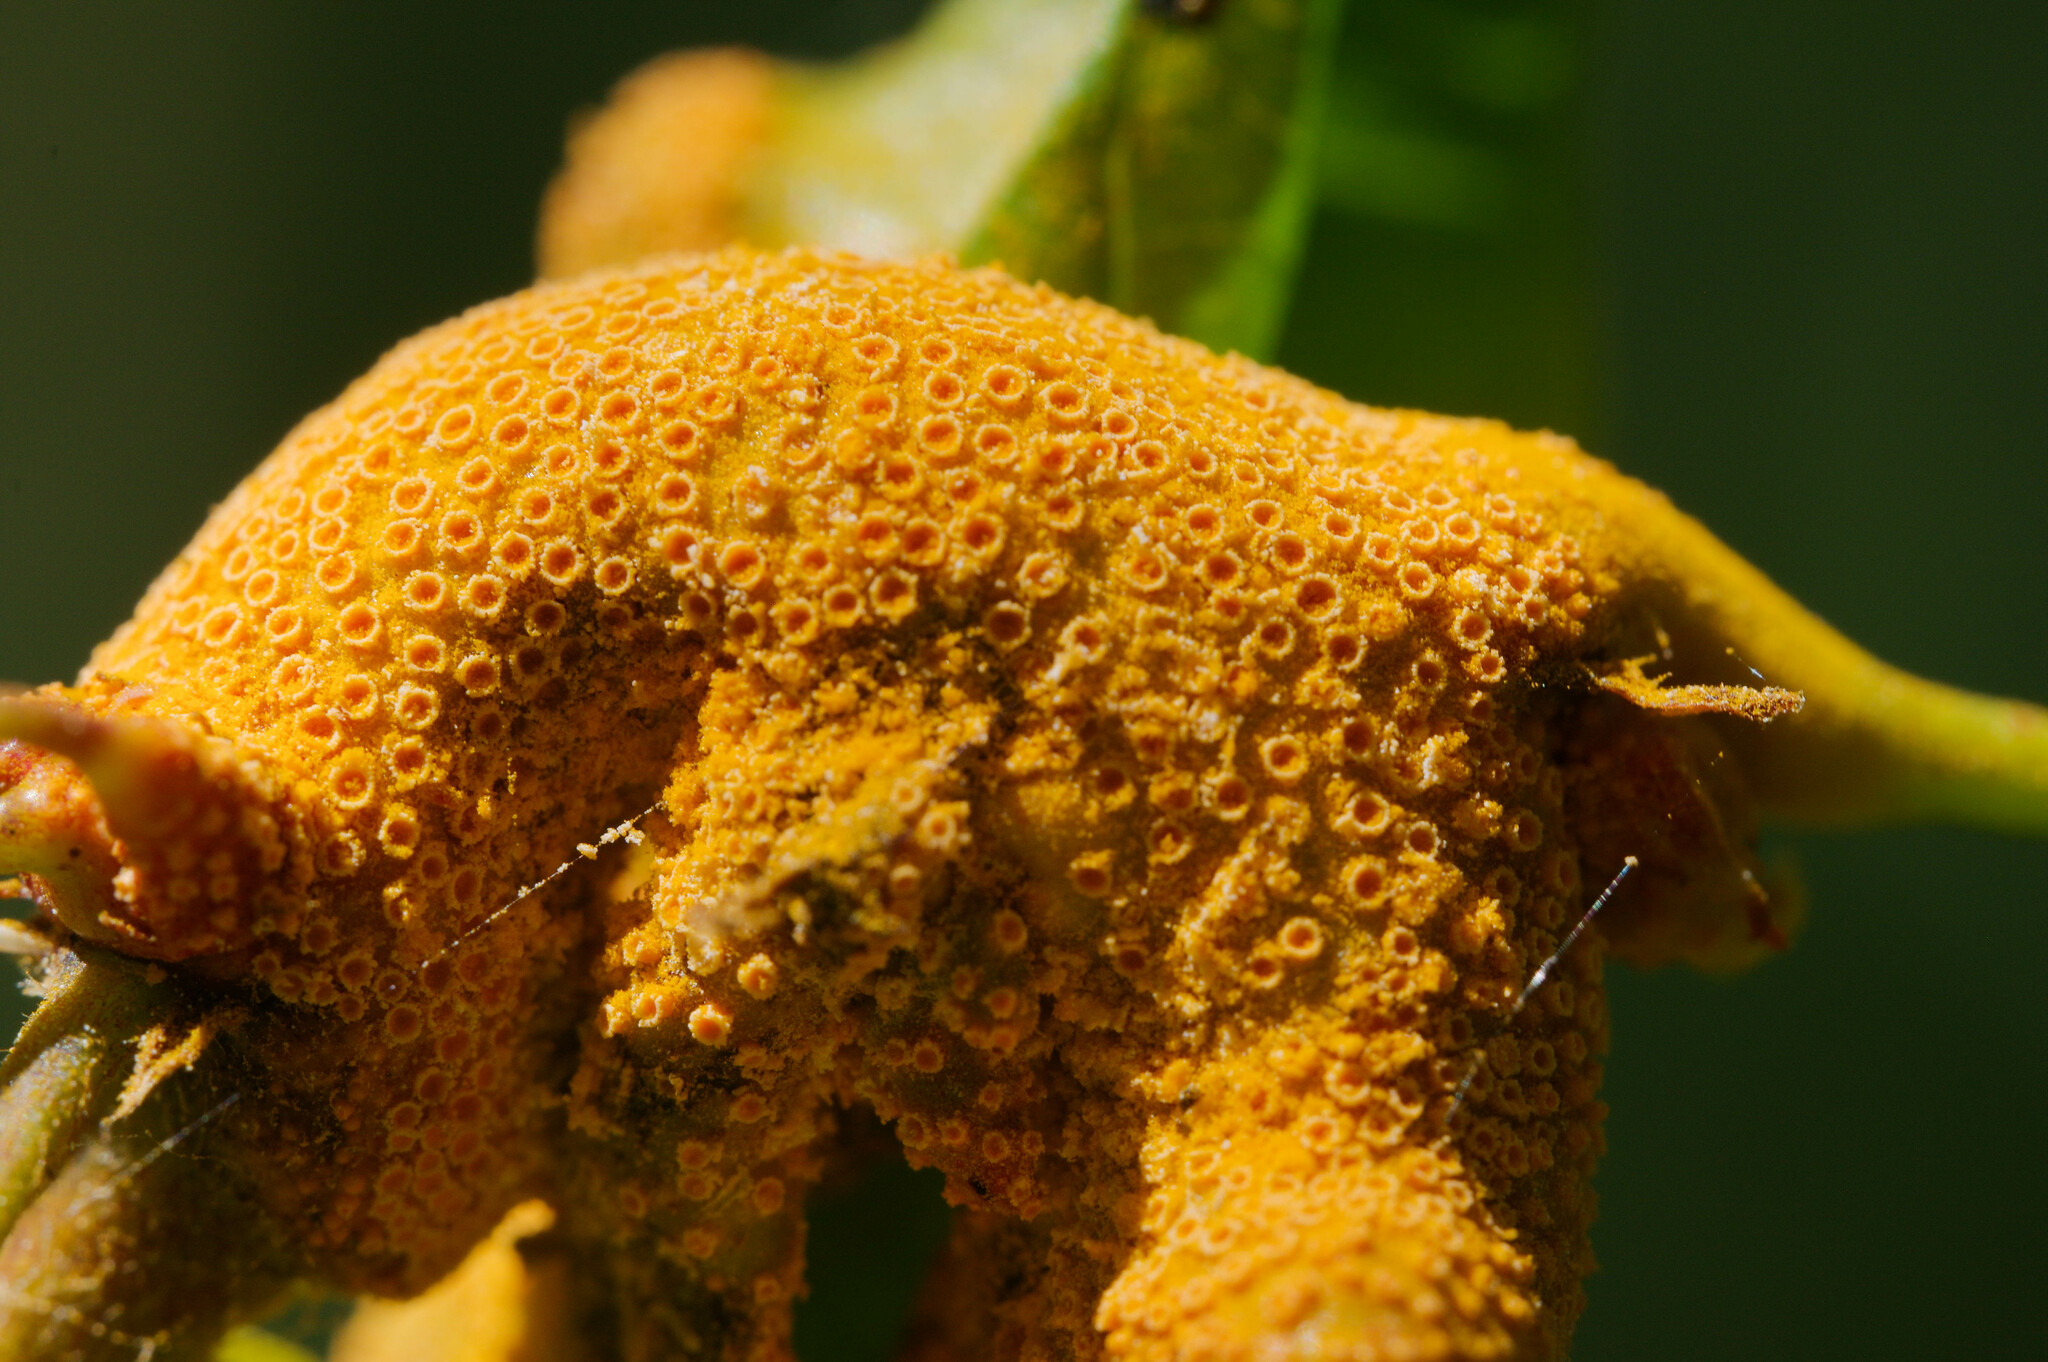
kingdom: Fungi
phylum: Basidiomycota
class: Pucciniomycetes
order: Pucciniales
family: Pucciniaceae
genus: Puccinia
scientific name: Puccinia coronata
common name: Crown rust
